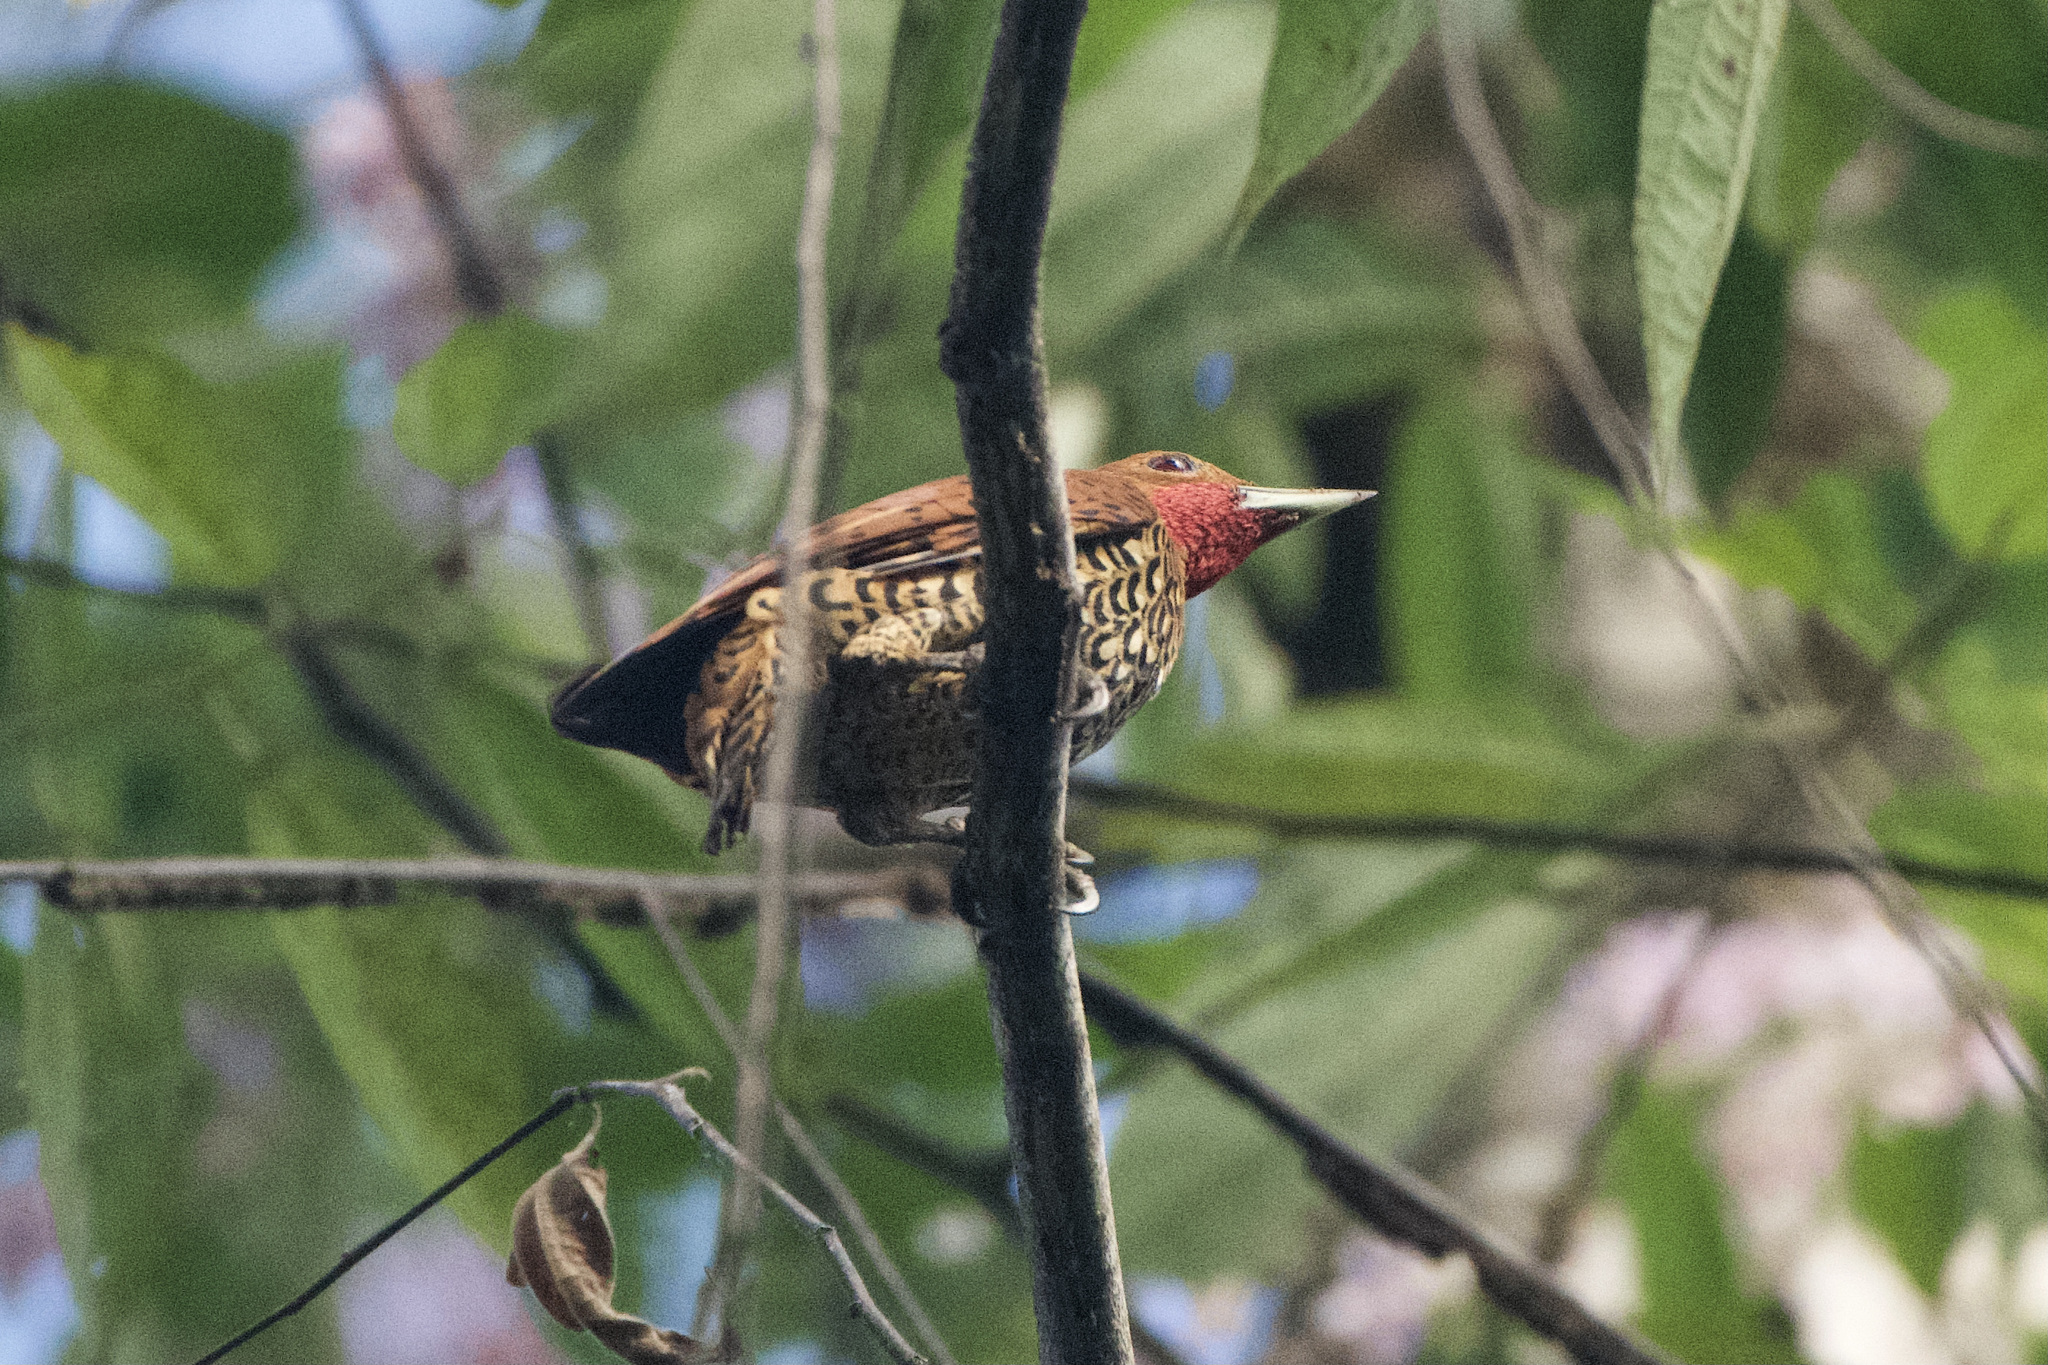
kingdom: Animalia
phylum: Chordata
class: Aves
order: Piciformes
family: Picidae
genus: Celeus
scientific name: Celeus loricatus
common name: Cinnamon woodpecker
